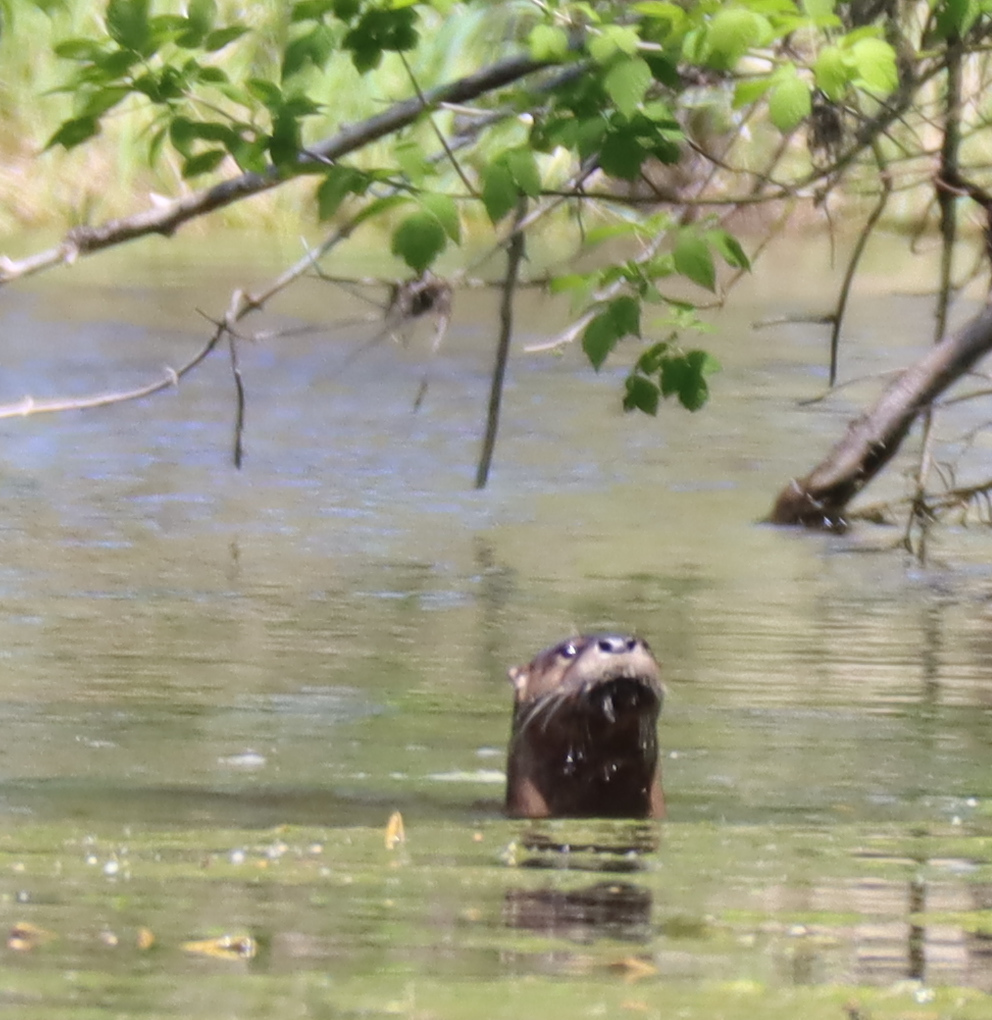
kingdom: Animalia
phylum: Chordata
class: Mammalia
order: Carnivora
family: Mustelidae
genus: Lontra
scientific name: Lontra canadensis
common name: North american river otter
